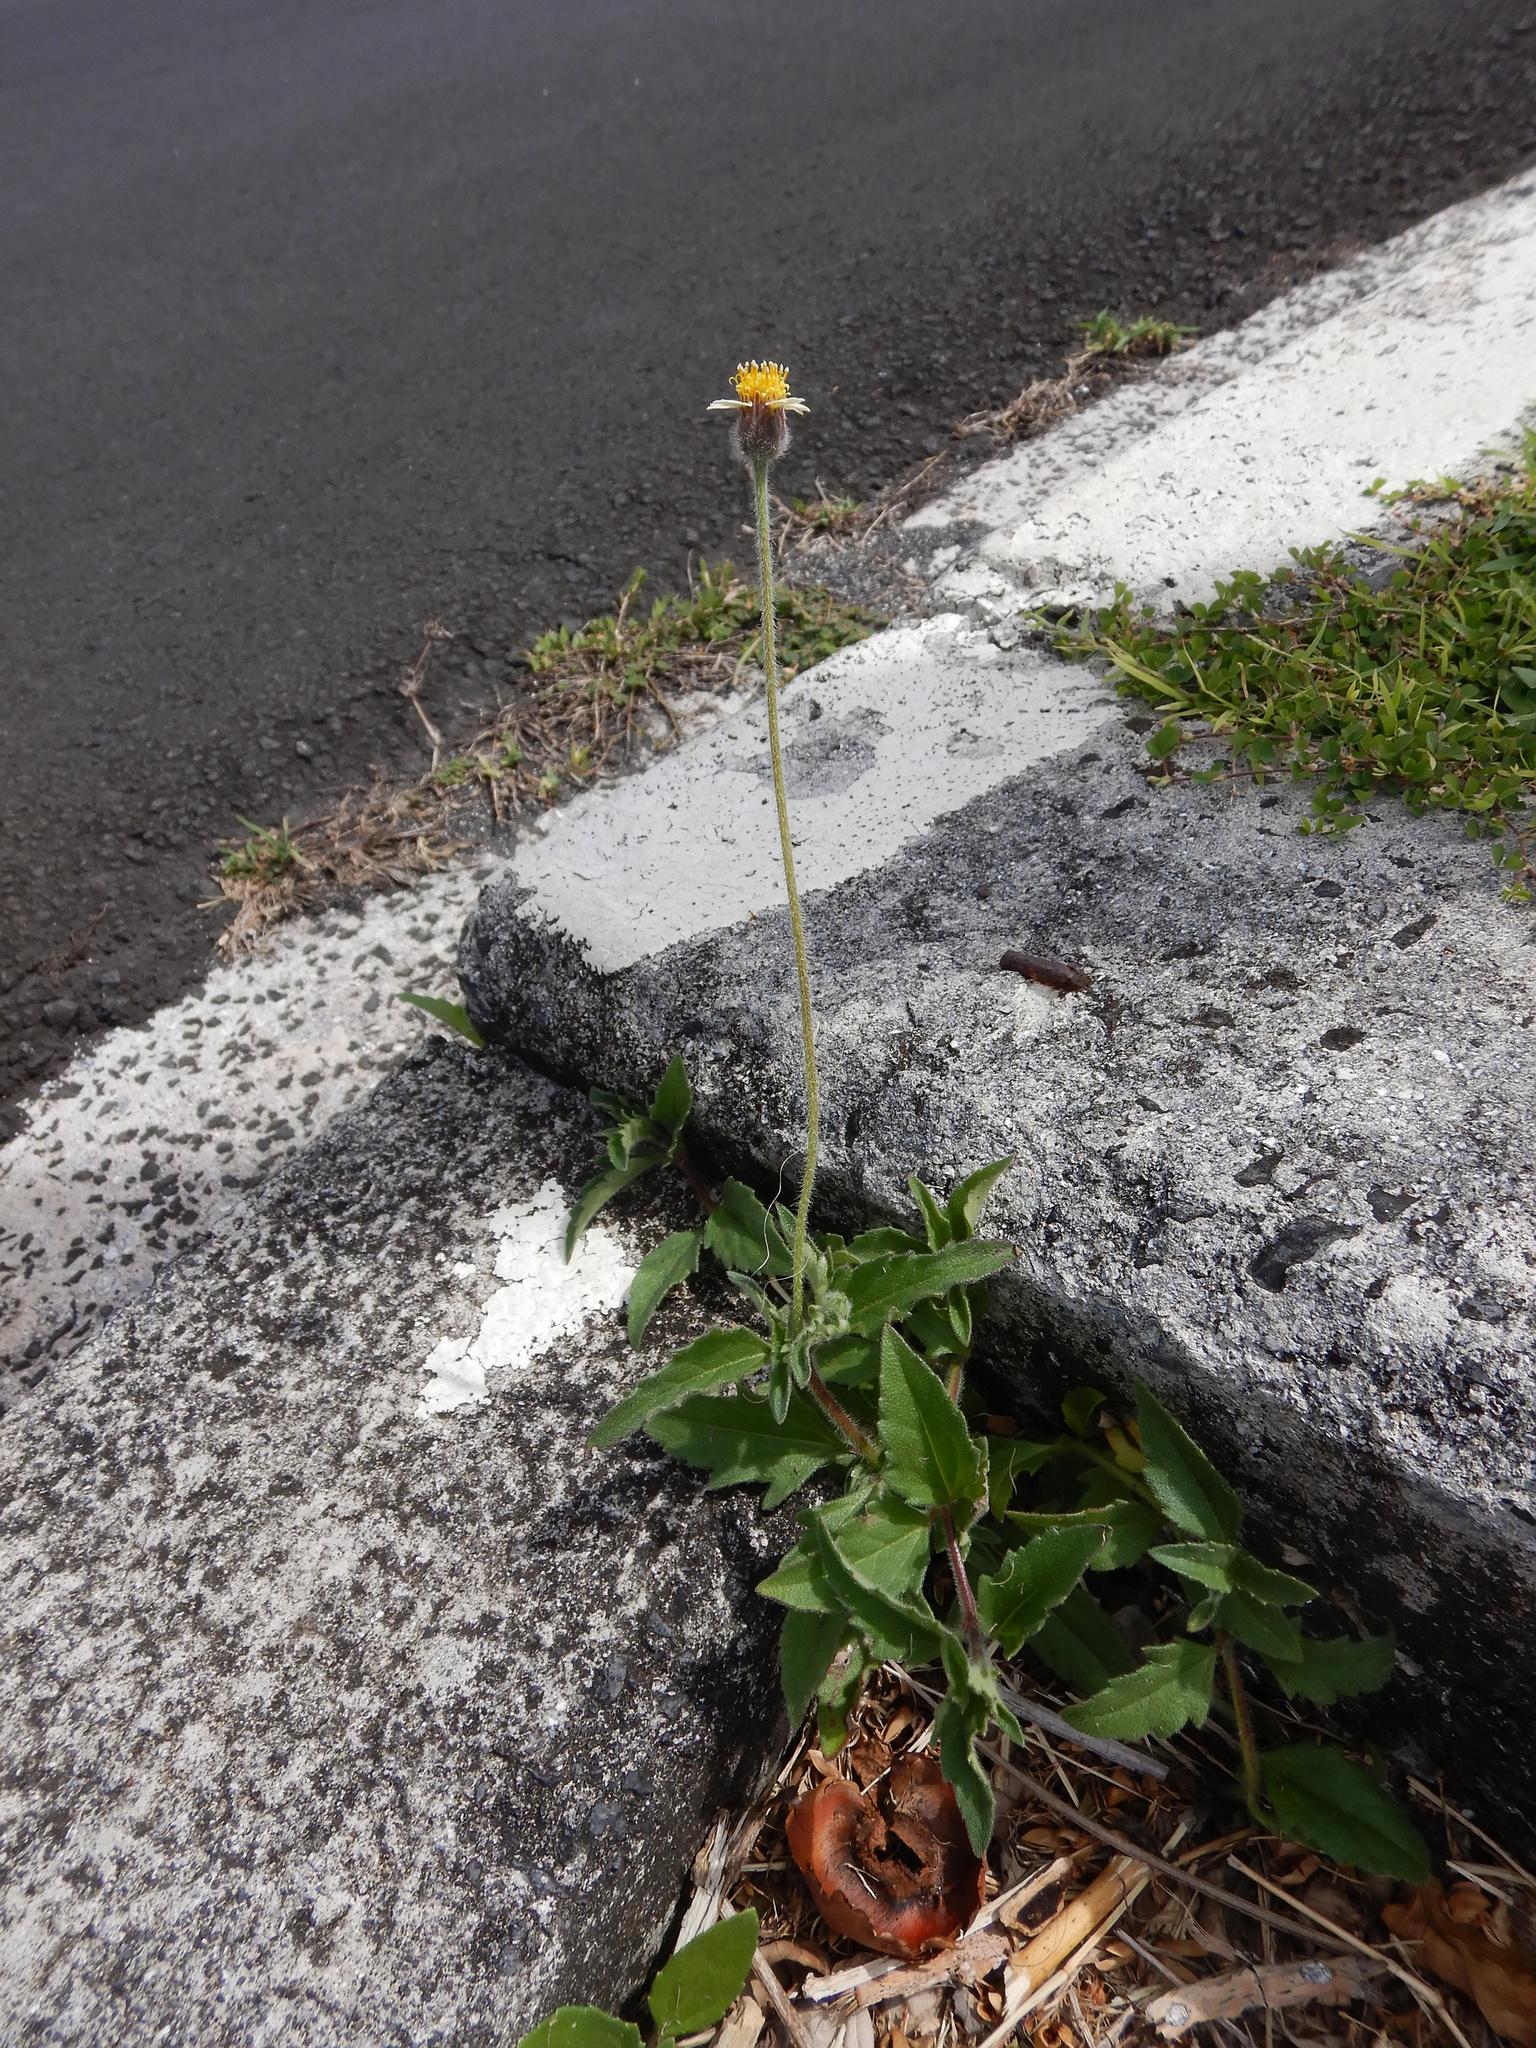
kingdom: Plantae
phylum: Tracheophyta
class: Magnoliopsida
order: Asterales
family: Asteraceae
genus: Tridax
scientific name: Tridax procumbens
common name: Coatbuttons
